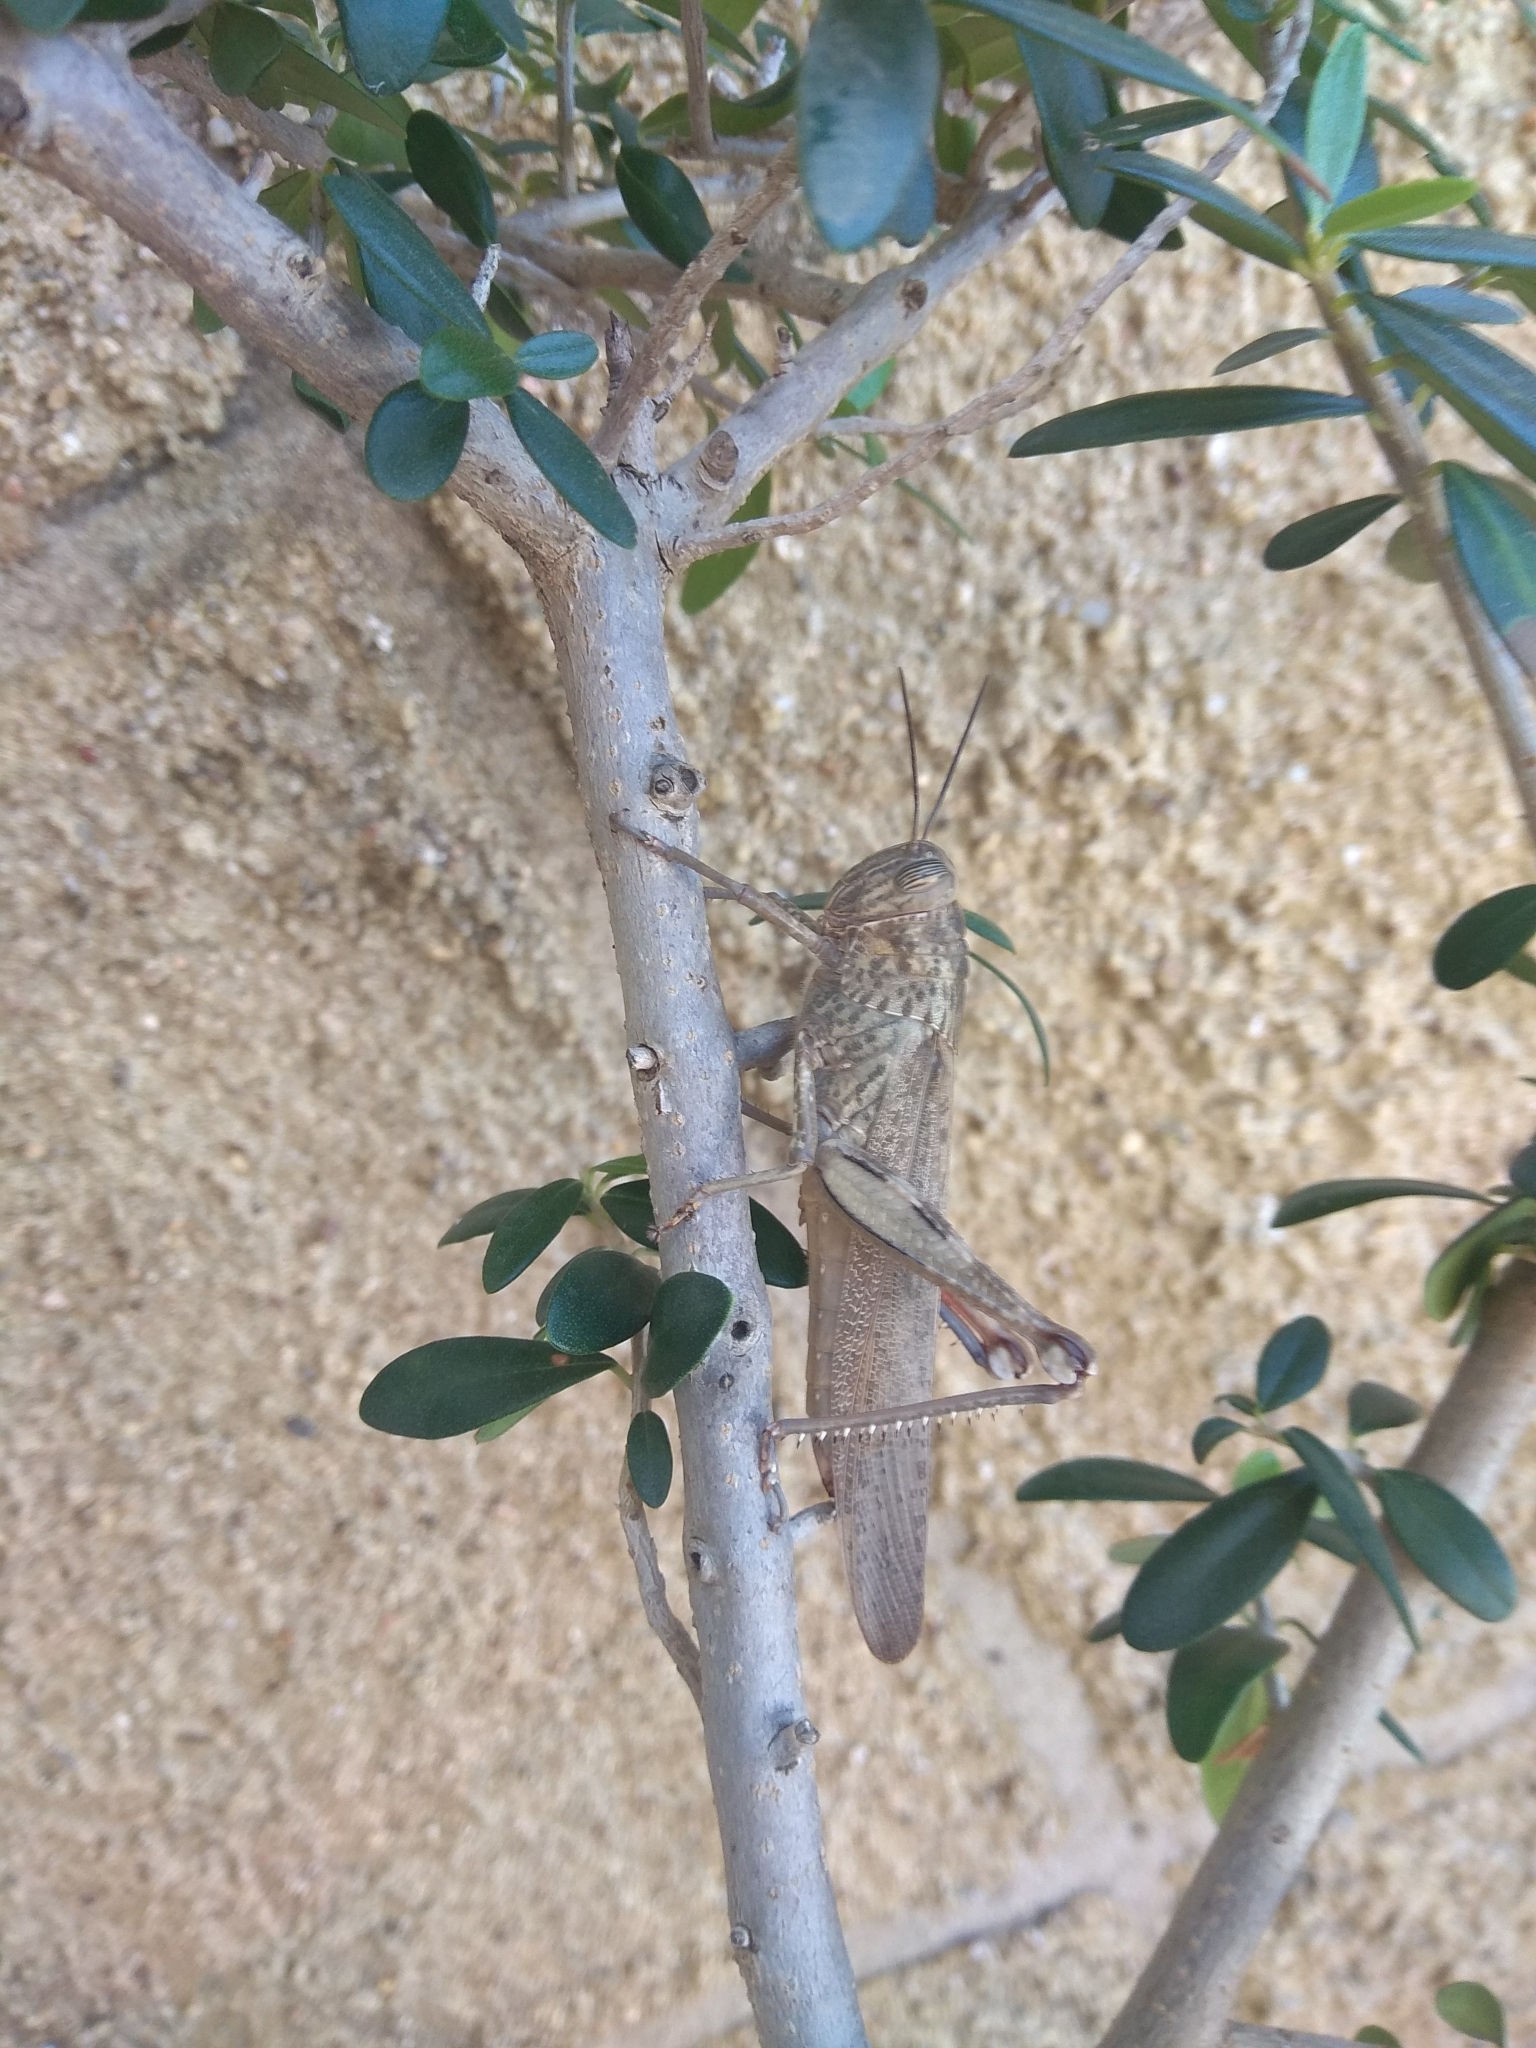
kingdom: Animalia
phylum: Arthropoda
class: Insecta
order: Orthoptera
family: Acrididae
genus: Anacridium
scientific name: Anacridium aegyptium
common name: Egyptian grasshopper
